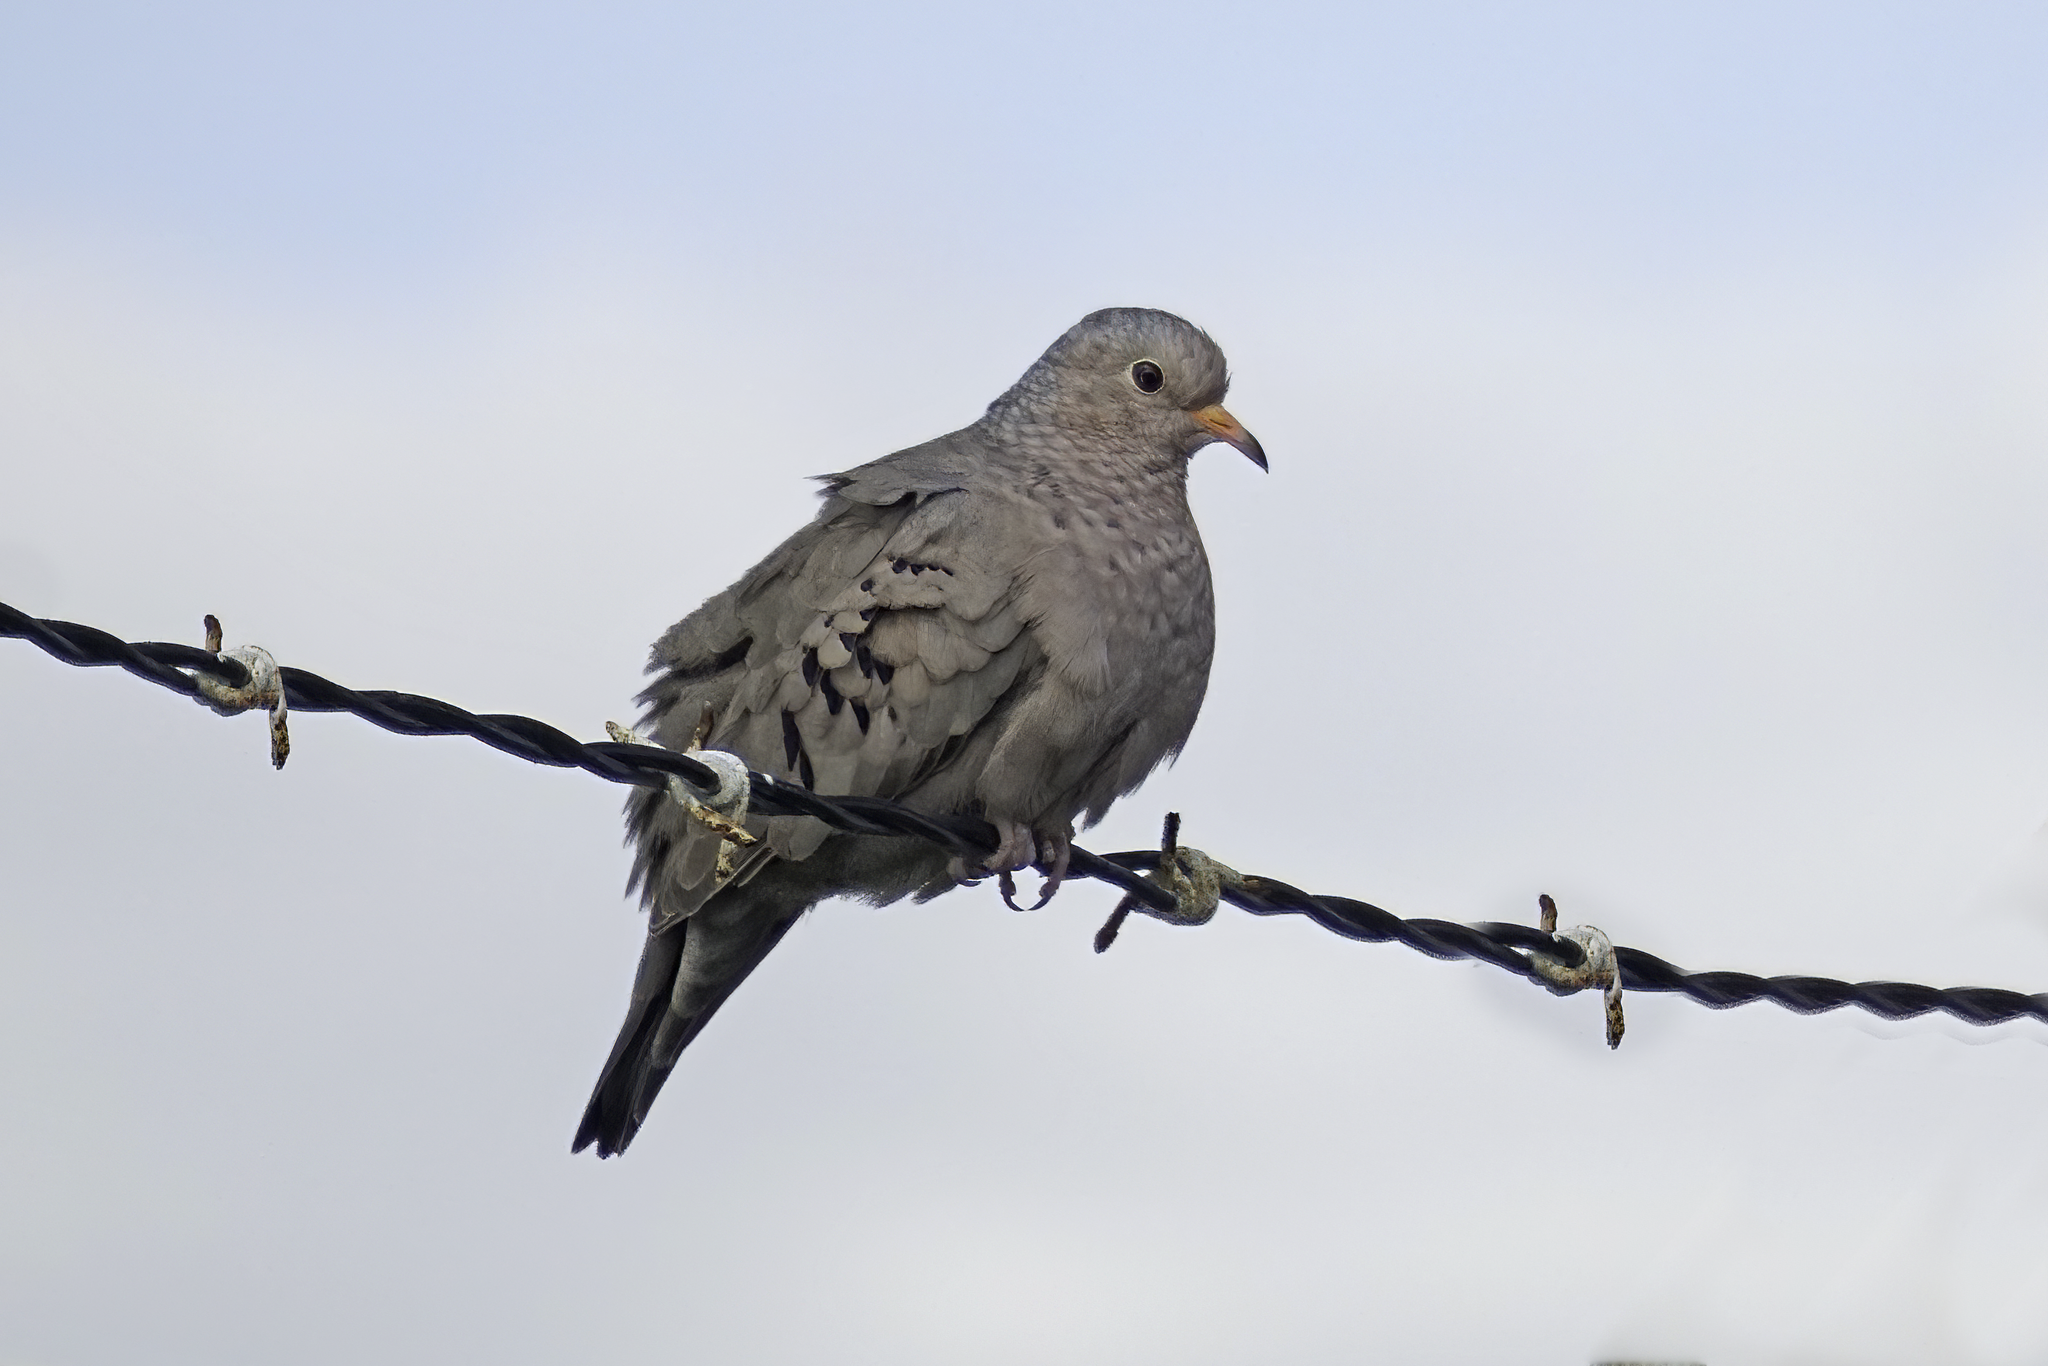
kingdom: Animalia
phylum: Chordata
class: Aves
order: Columbiformes
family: Columbidae
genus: Columbina
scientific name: Columbina passerina
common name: Common ground-dove
